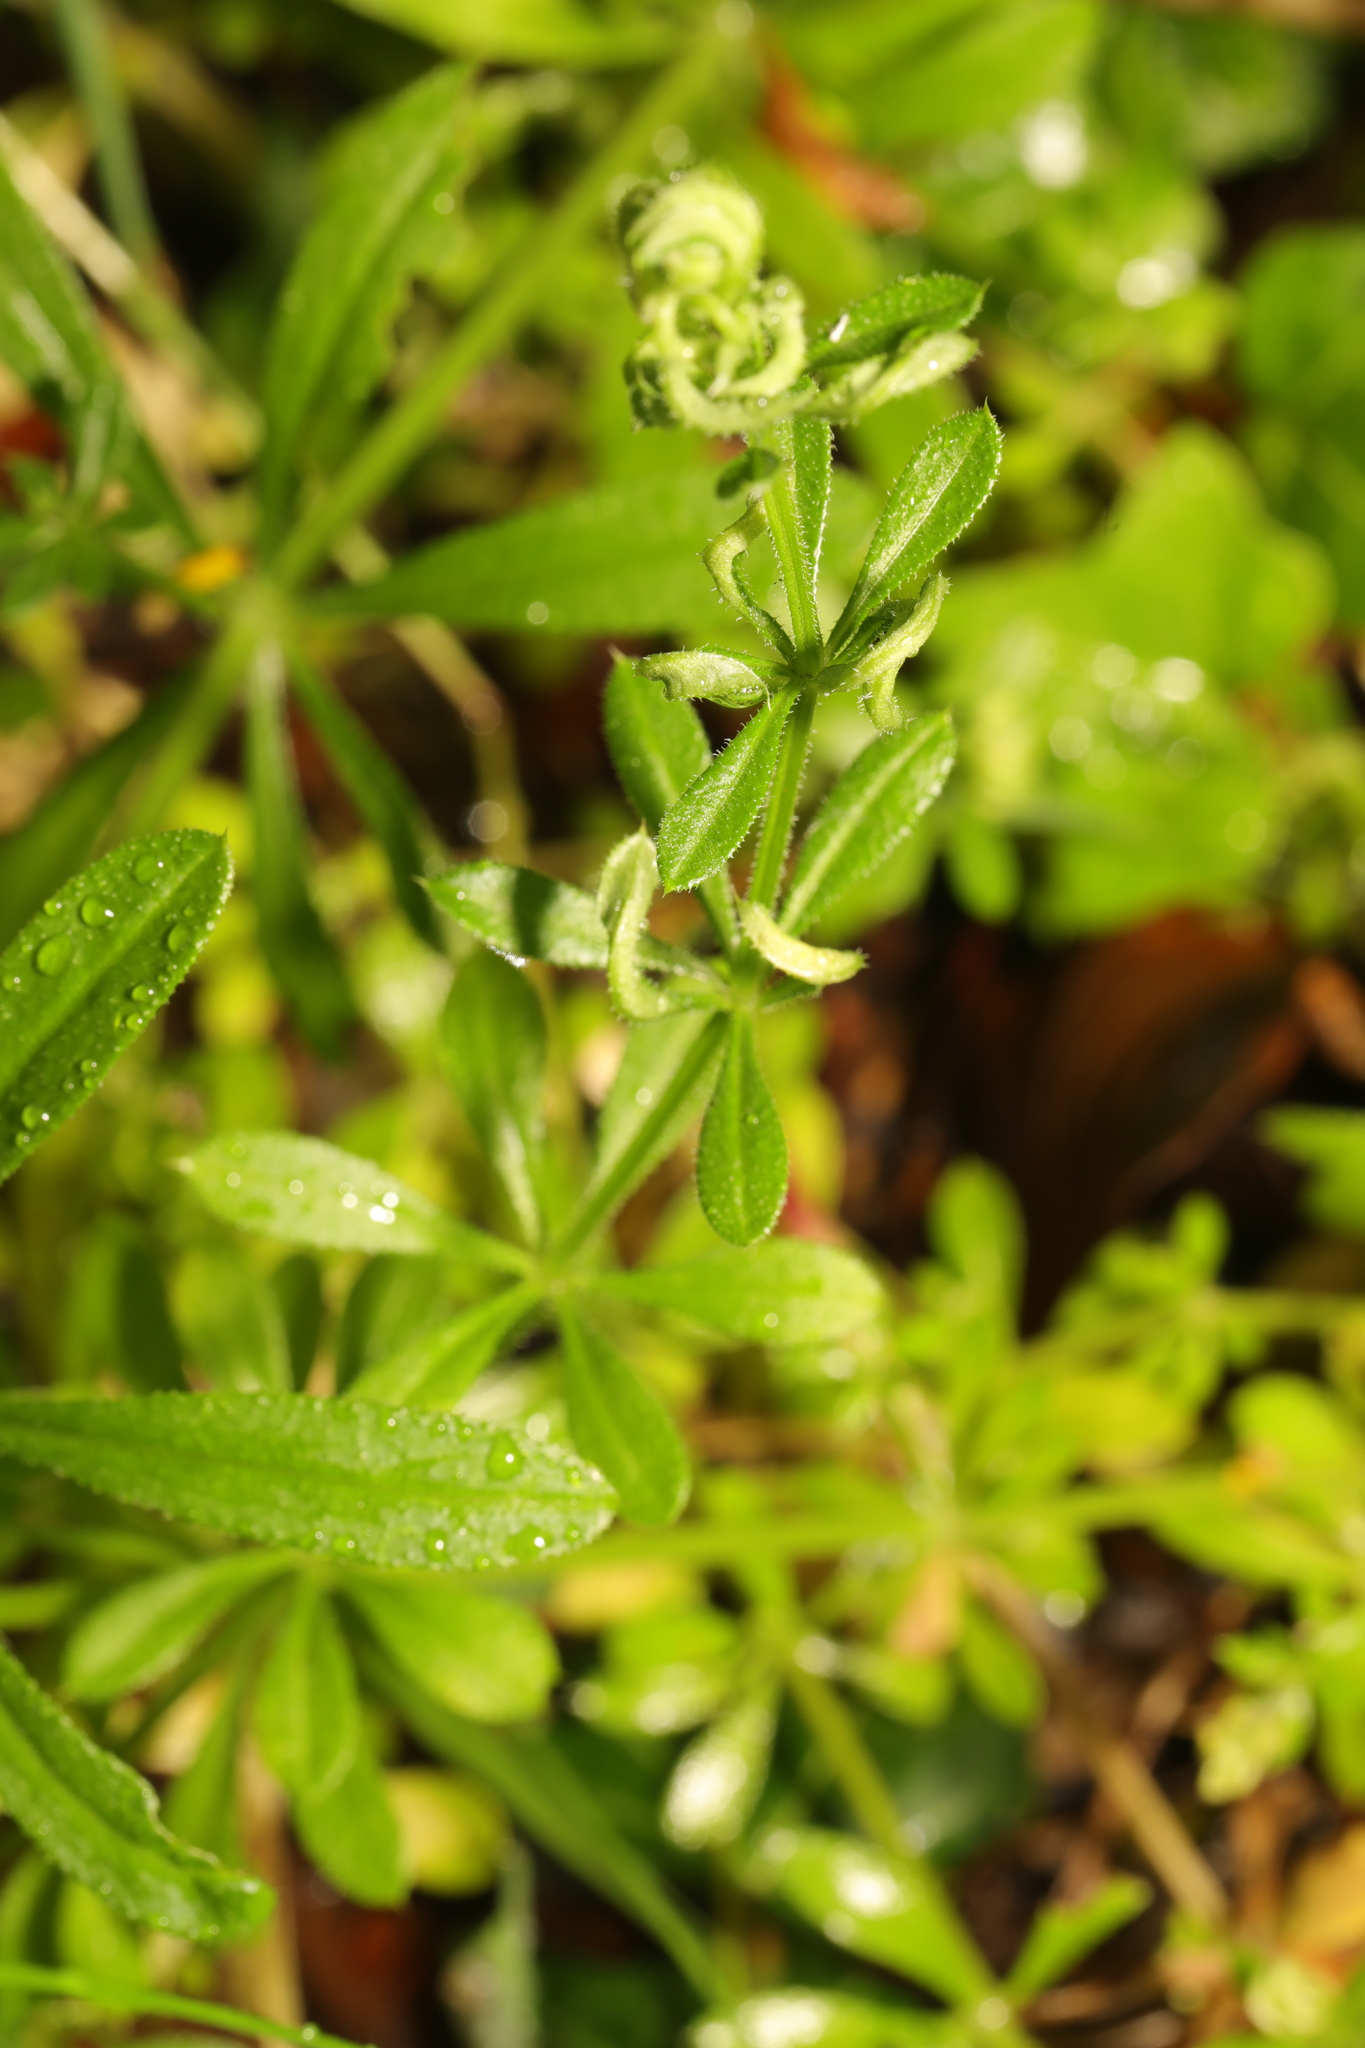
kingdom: Plantae
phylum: Tracheophyta
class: Magnoliopsida
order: Gentianales
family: Rubiaceae
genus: Galium
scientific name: Galium aparine
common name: Cleavers
